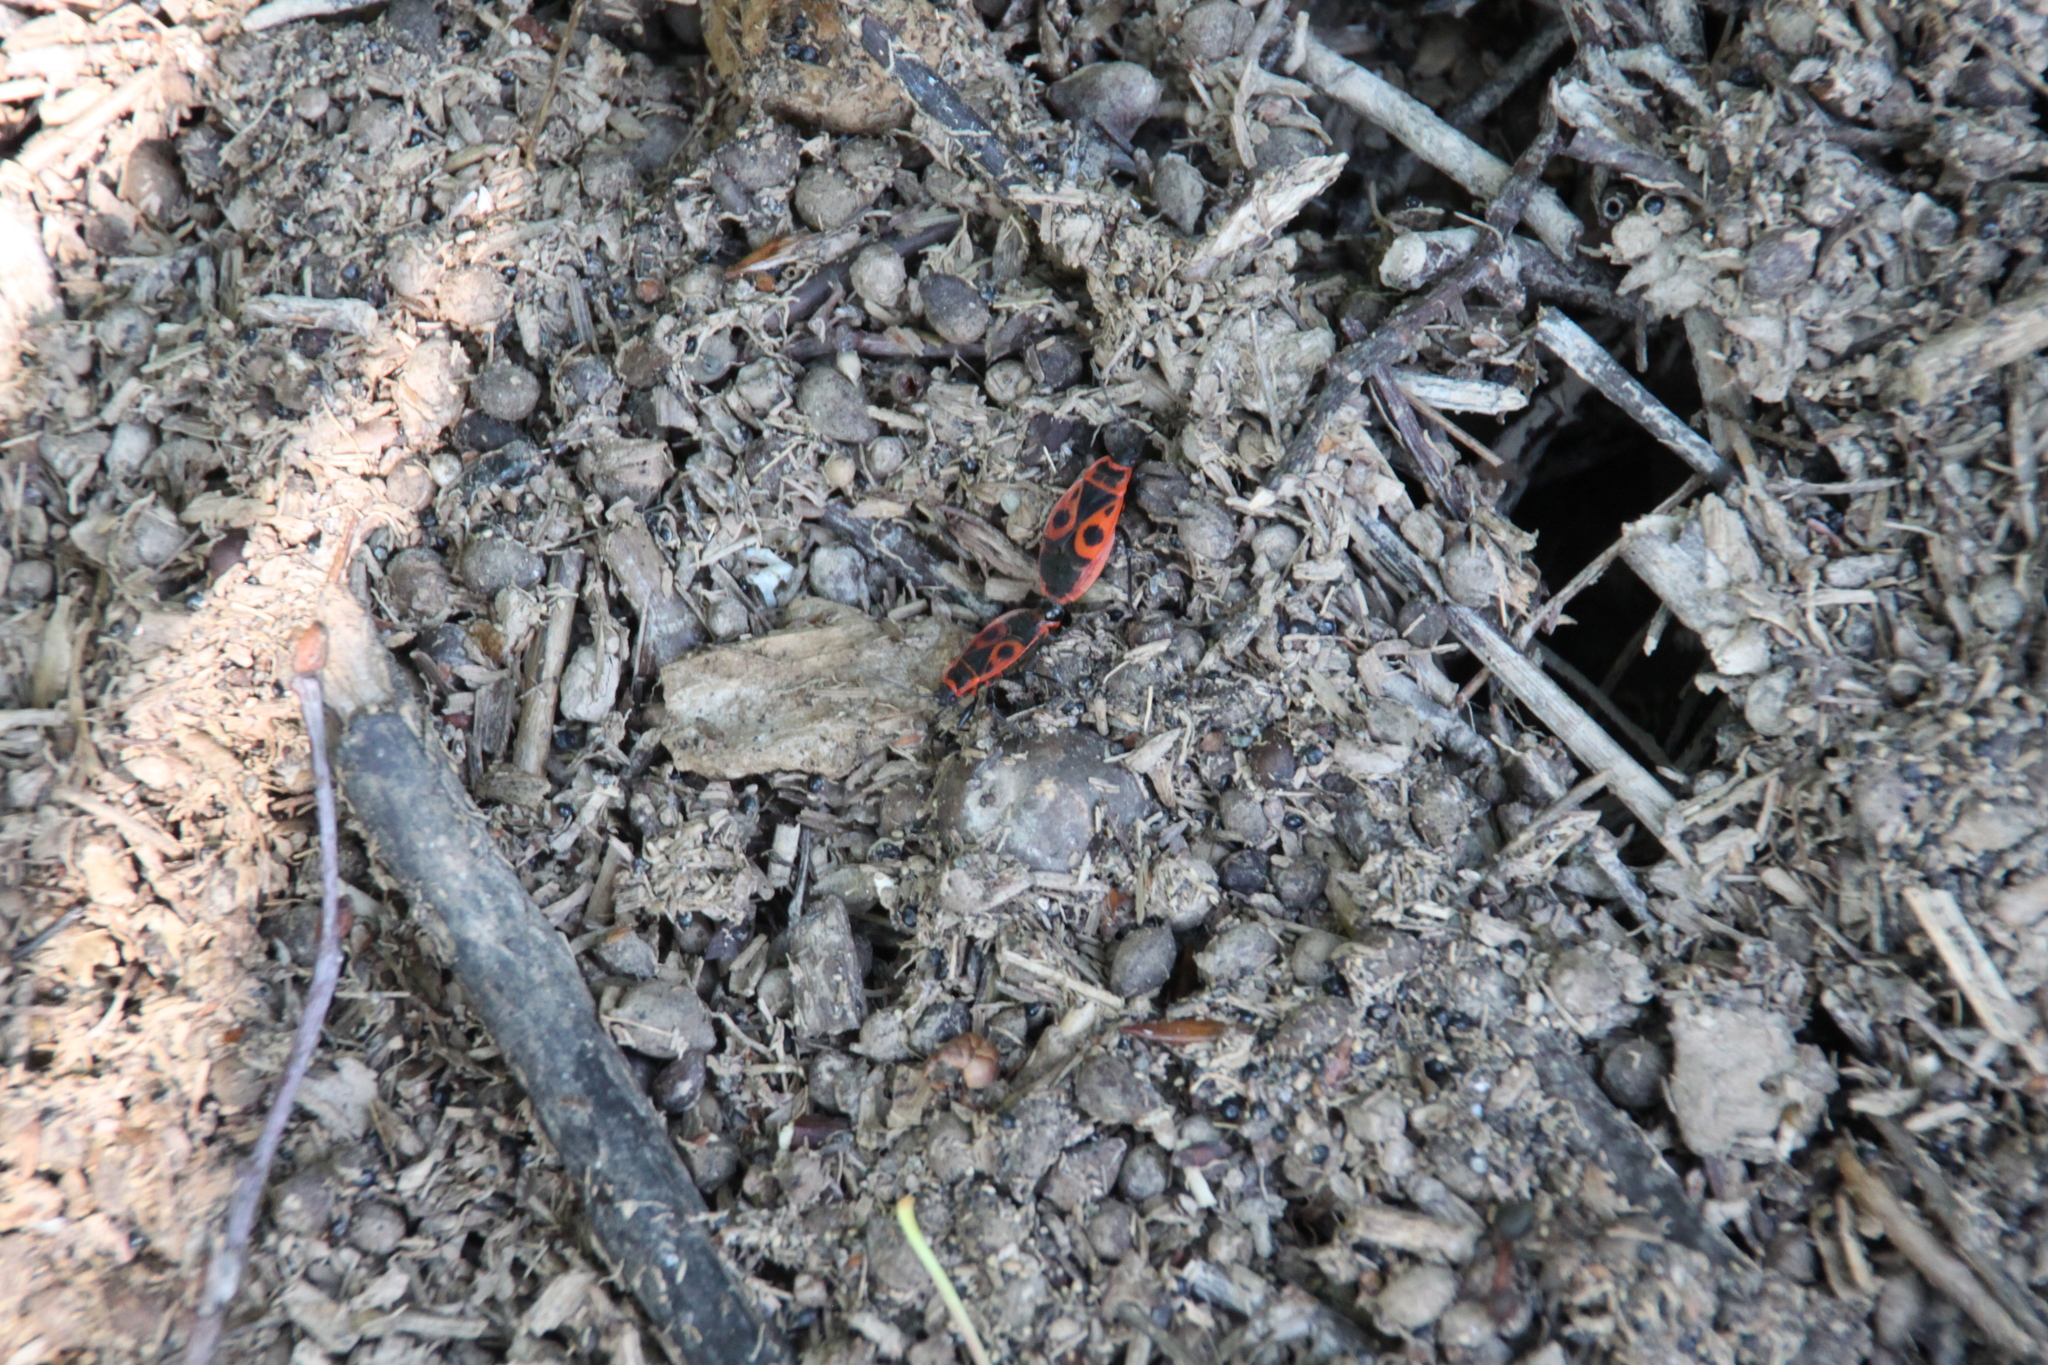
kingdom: Animalia
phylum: Arthropoda
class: Insecta
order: Hemiptera
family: Pyrrhocoridae
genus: Pyrrhocoris
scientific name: Pyrrhocoris apterus
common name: Firebug
